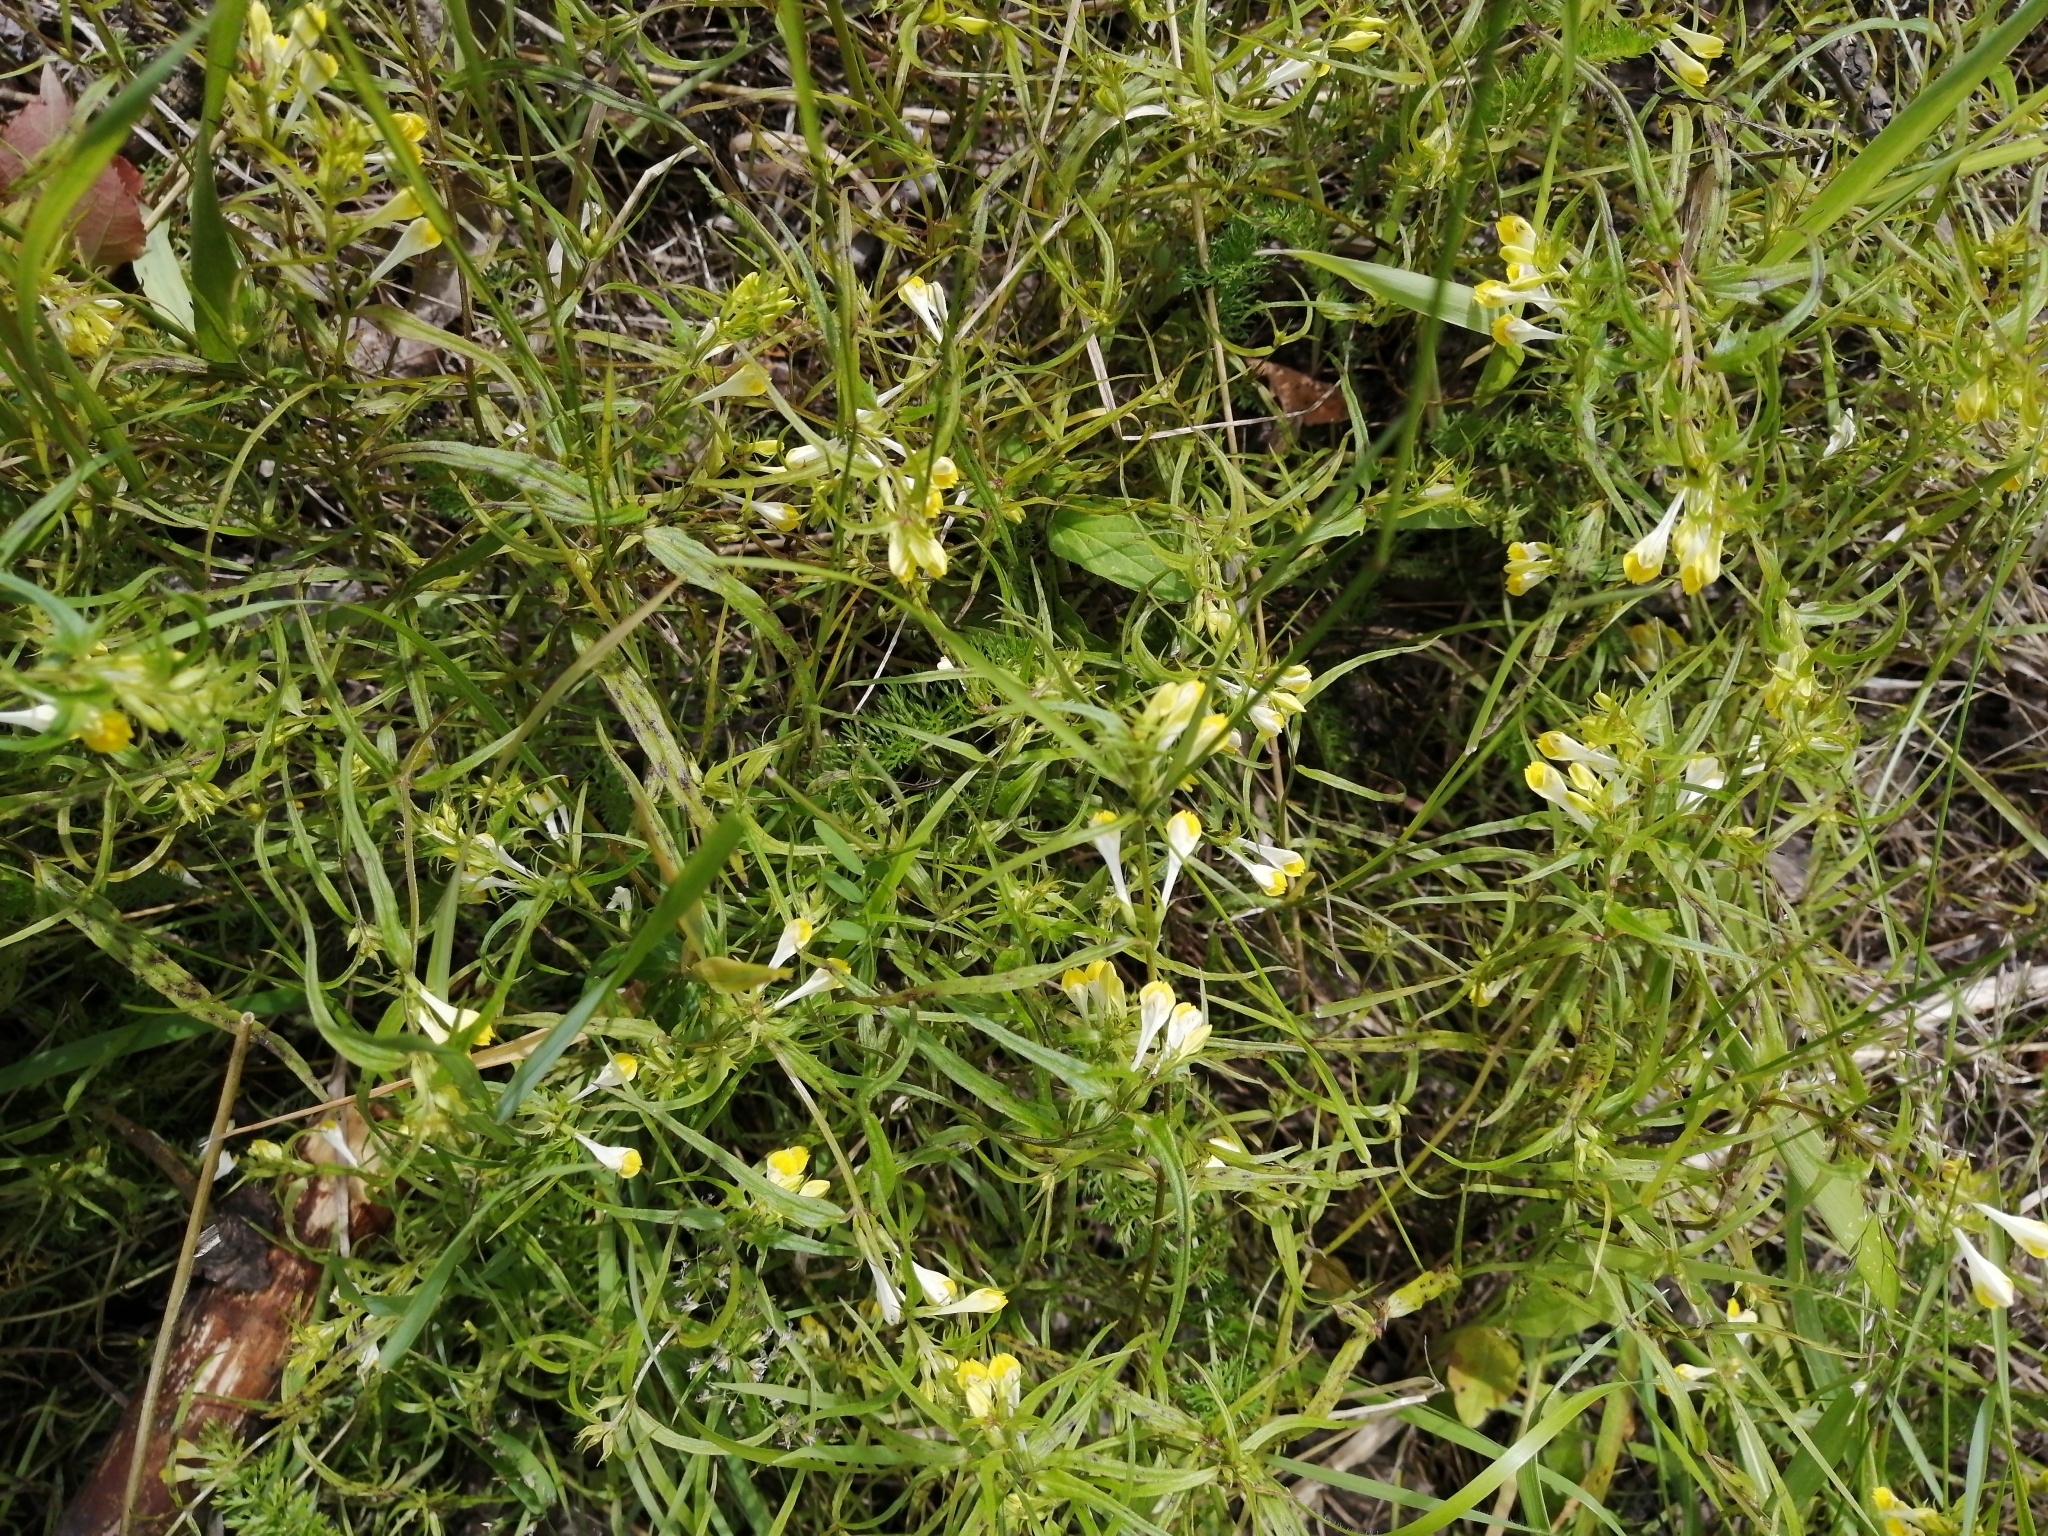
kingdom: Plantae
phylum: Tracheophyta
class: Magnoliopsida
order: Lamiales
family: Orobanchaceae
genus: Melampyrum
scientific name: Melampyrum pratense
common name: Common cow-wheat
